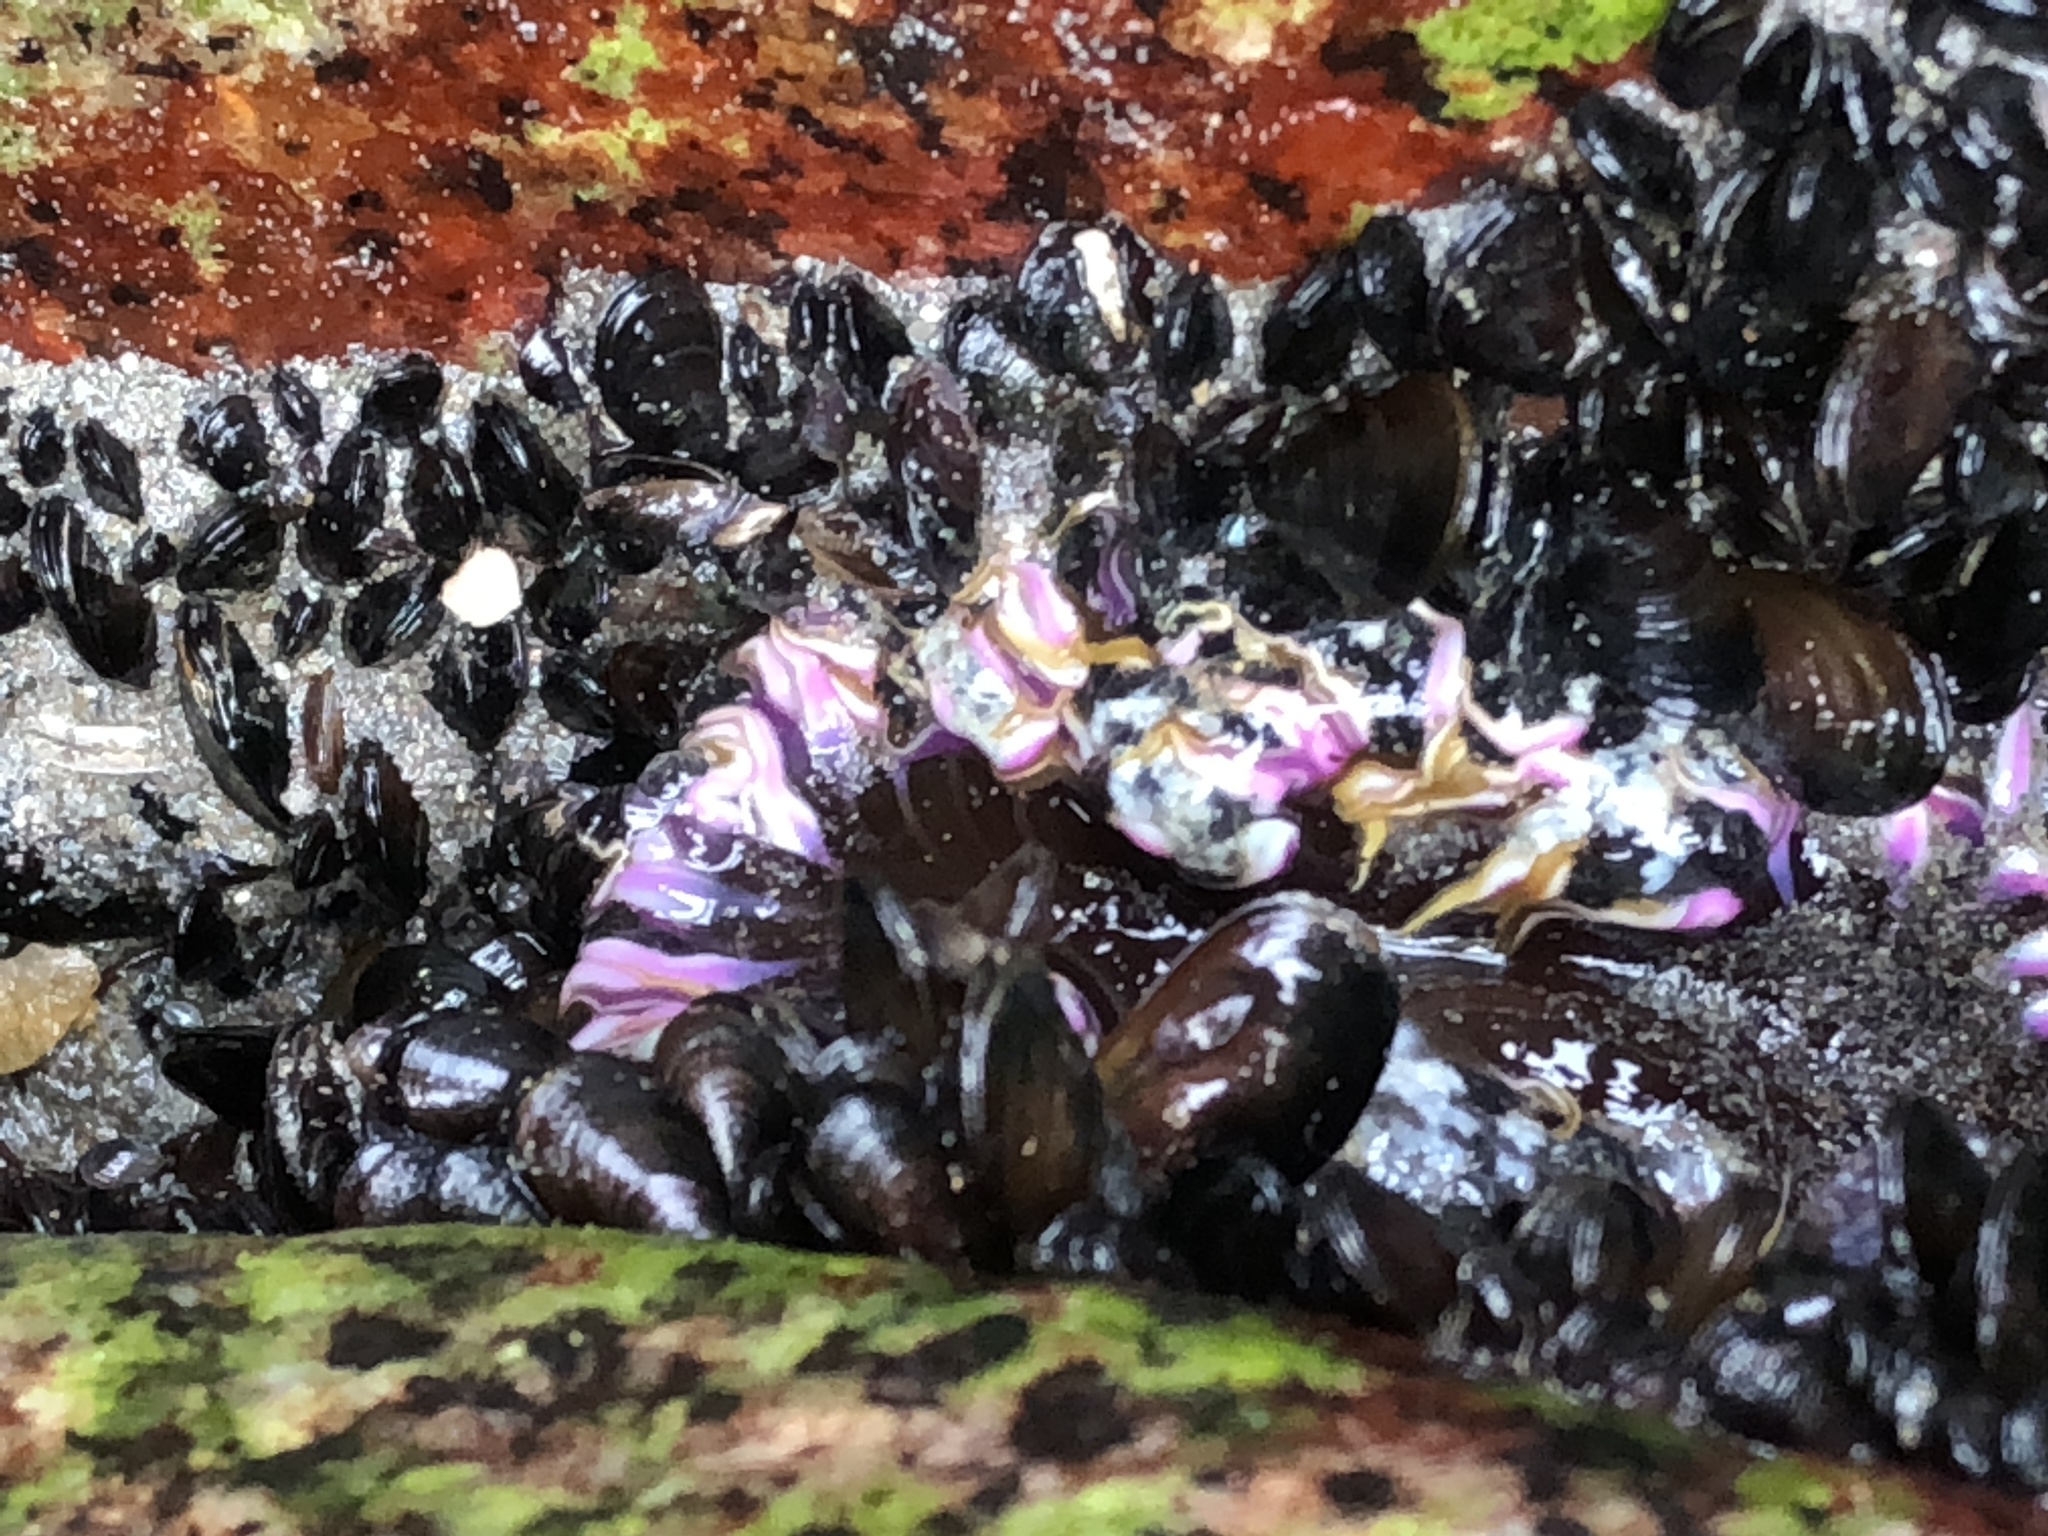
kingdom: Animalia
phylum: Cnidaria
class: Anthozoa
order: Actiniaria
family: Actiniidae
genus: Oulactis
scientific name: Oulactis concinnata
